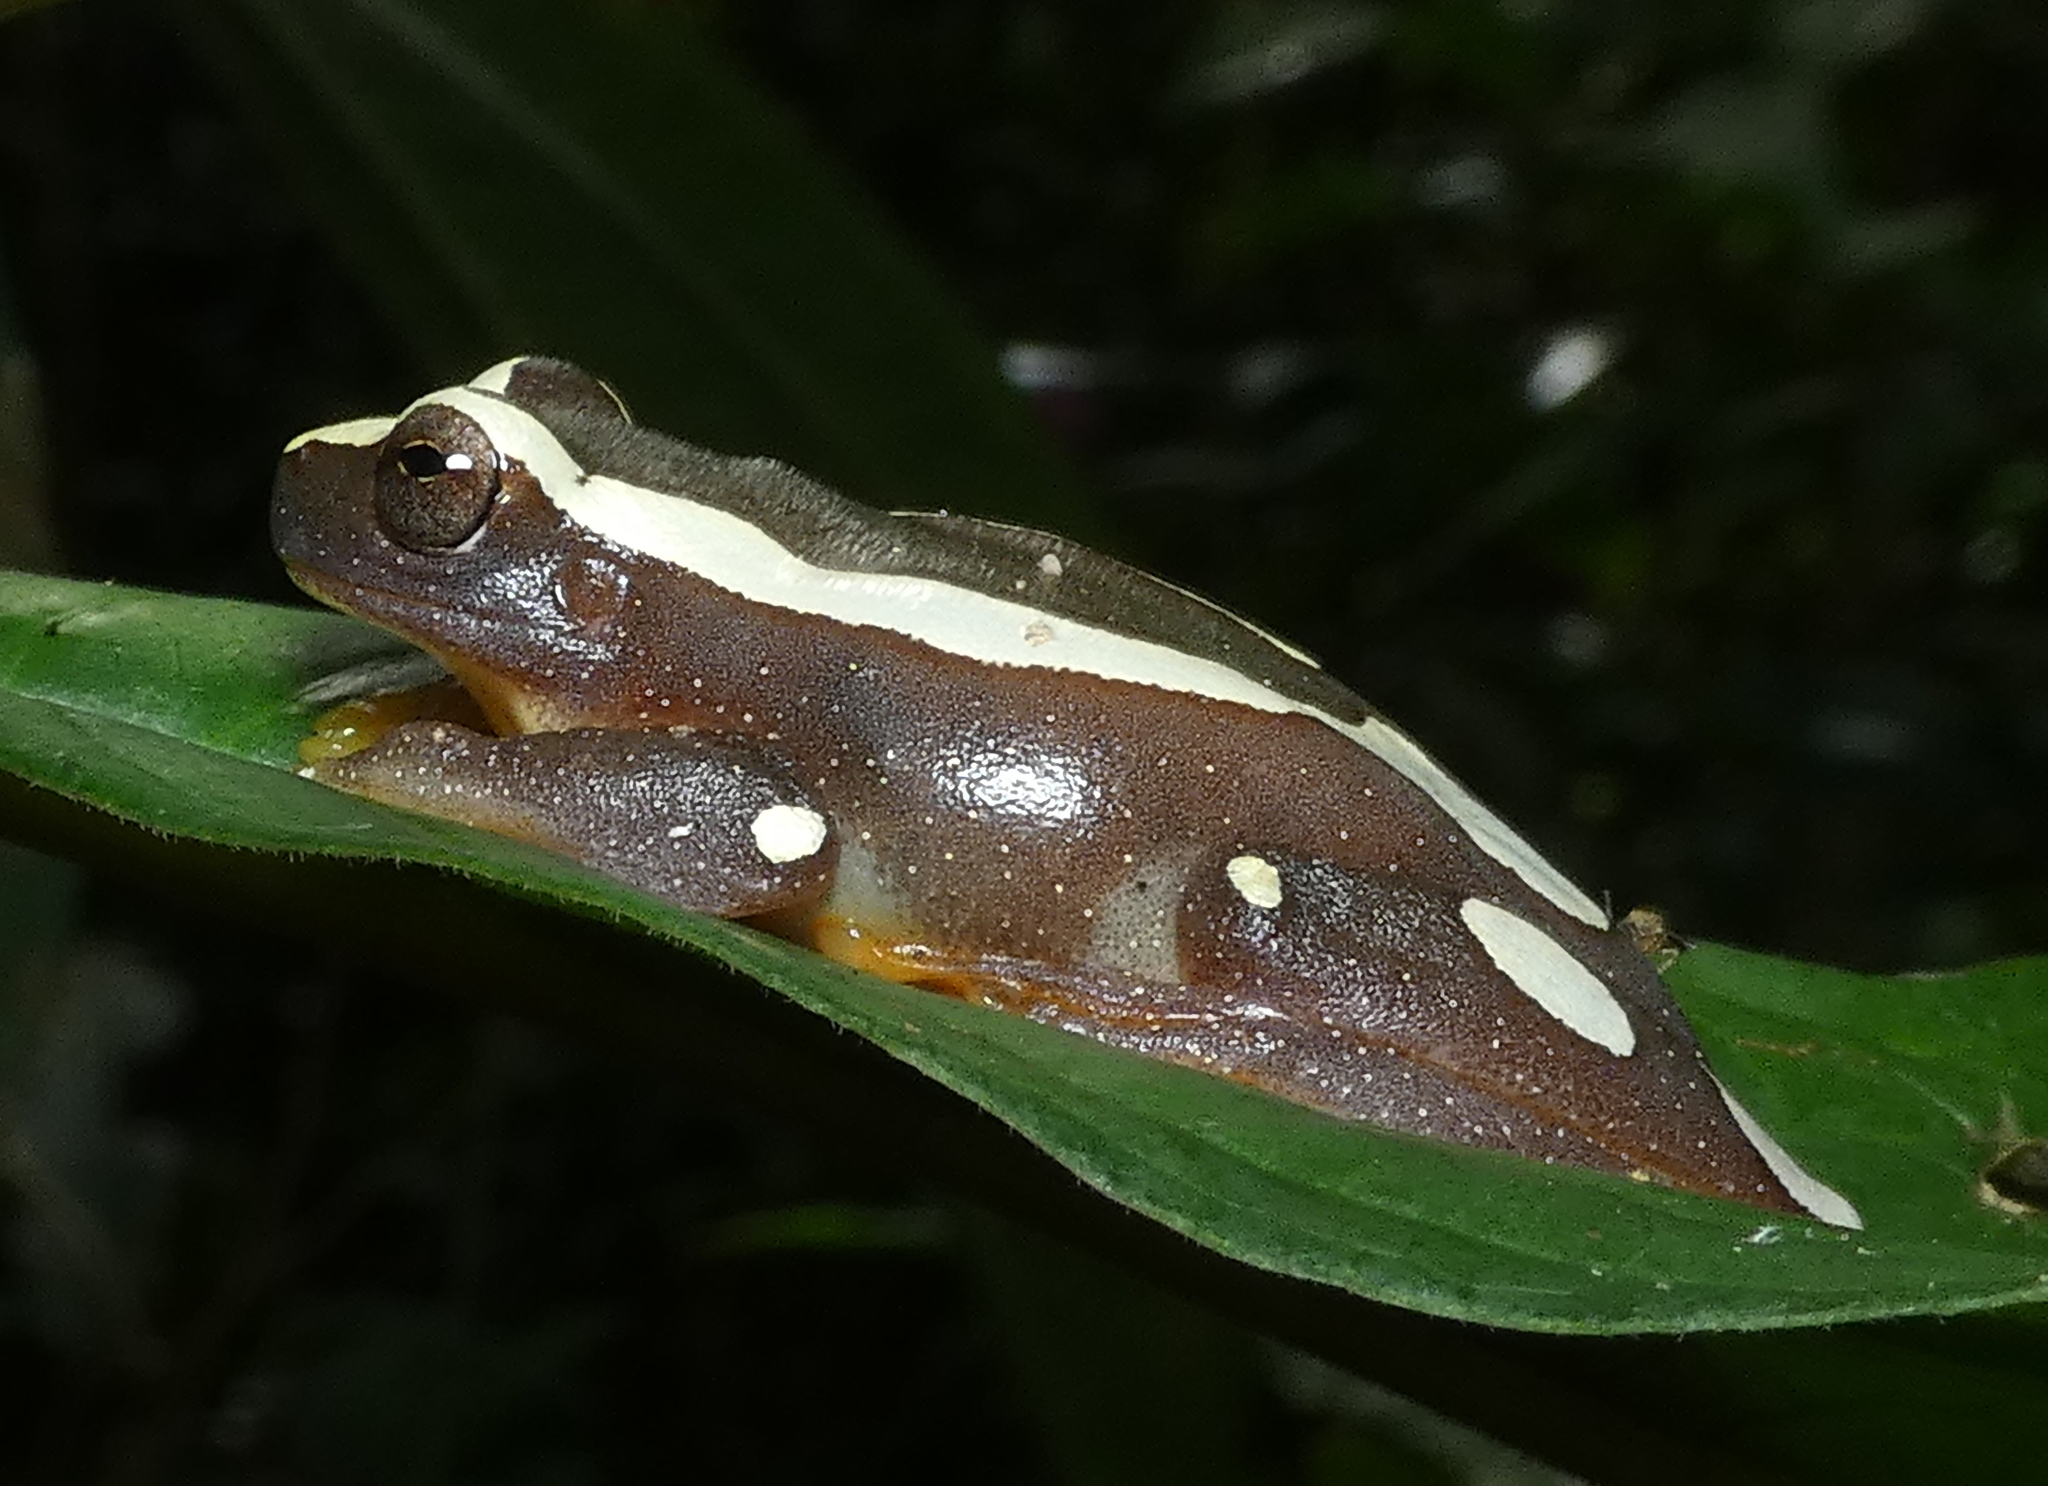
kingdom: Animalia
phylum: Chordata
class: Amphibia
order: Anura
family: Hylidae
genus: Dendropsophus
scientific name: Dendropsophus elegans
